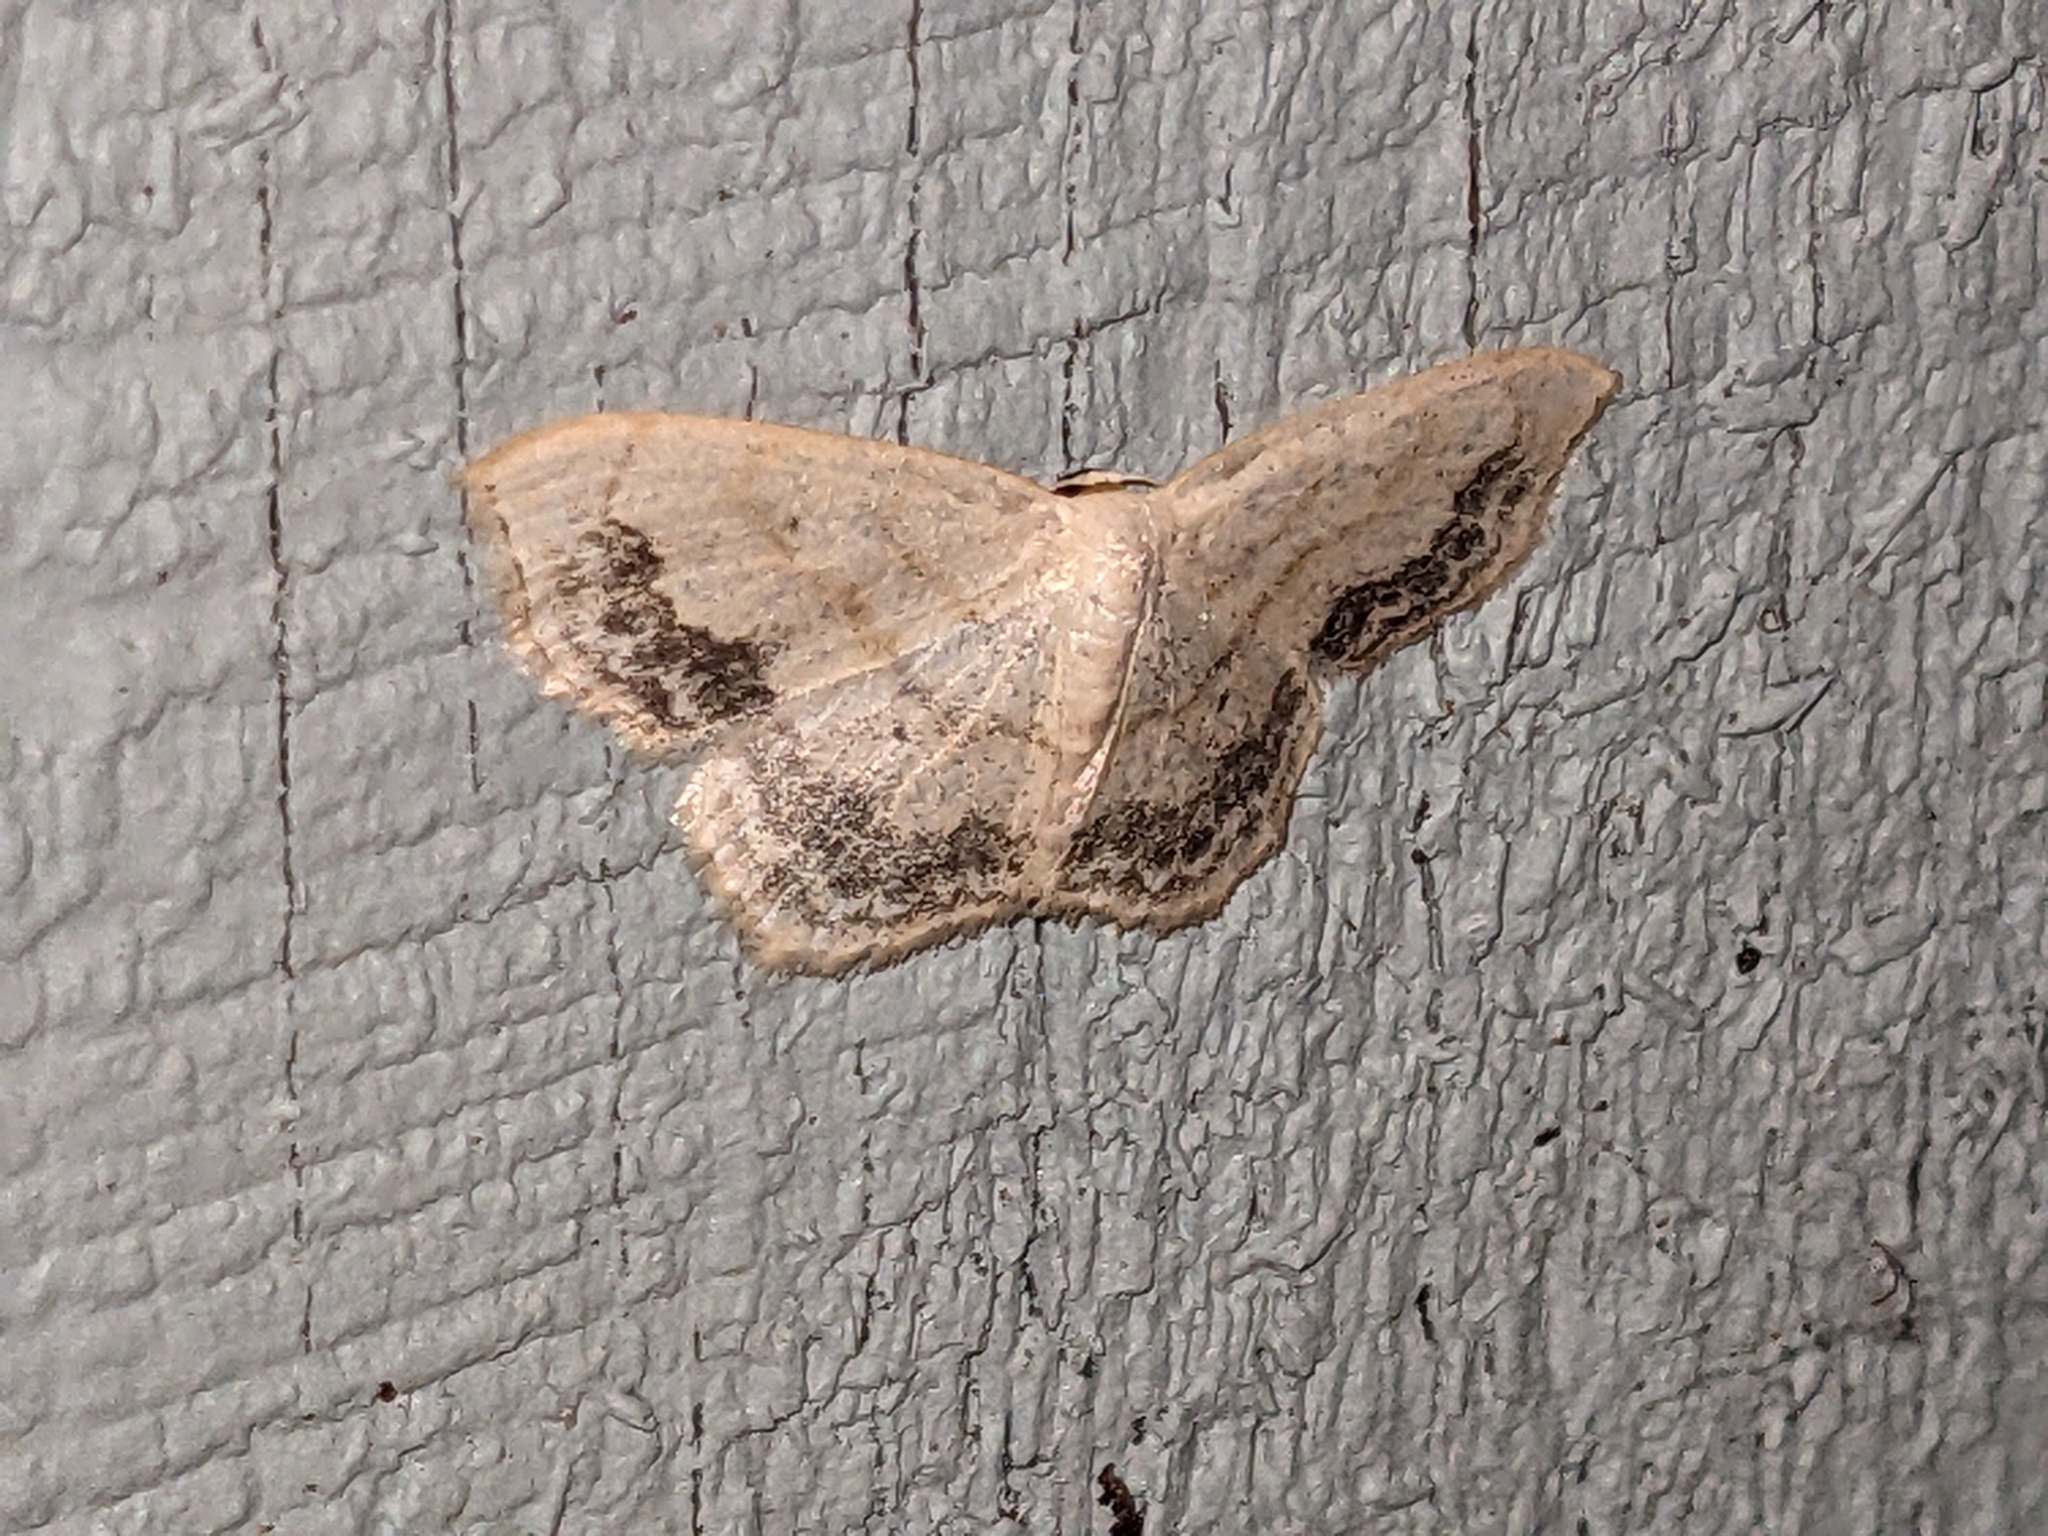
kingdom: Animalia
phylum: Arthropoda
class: Insecta
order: Lepidoptera
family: Geometridae
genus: Scopula
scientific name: Scopula limboundata
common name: Large lace border
